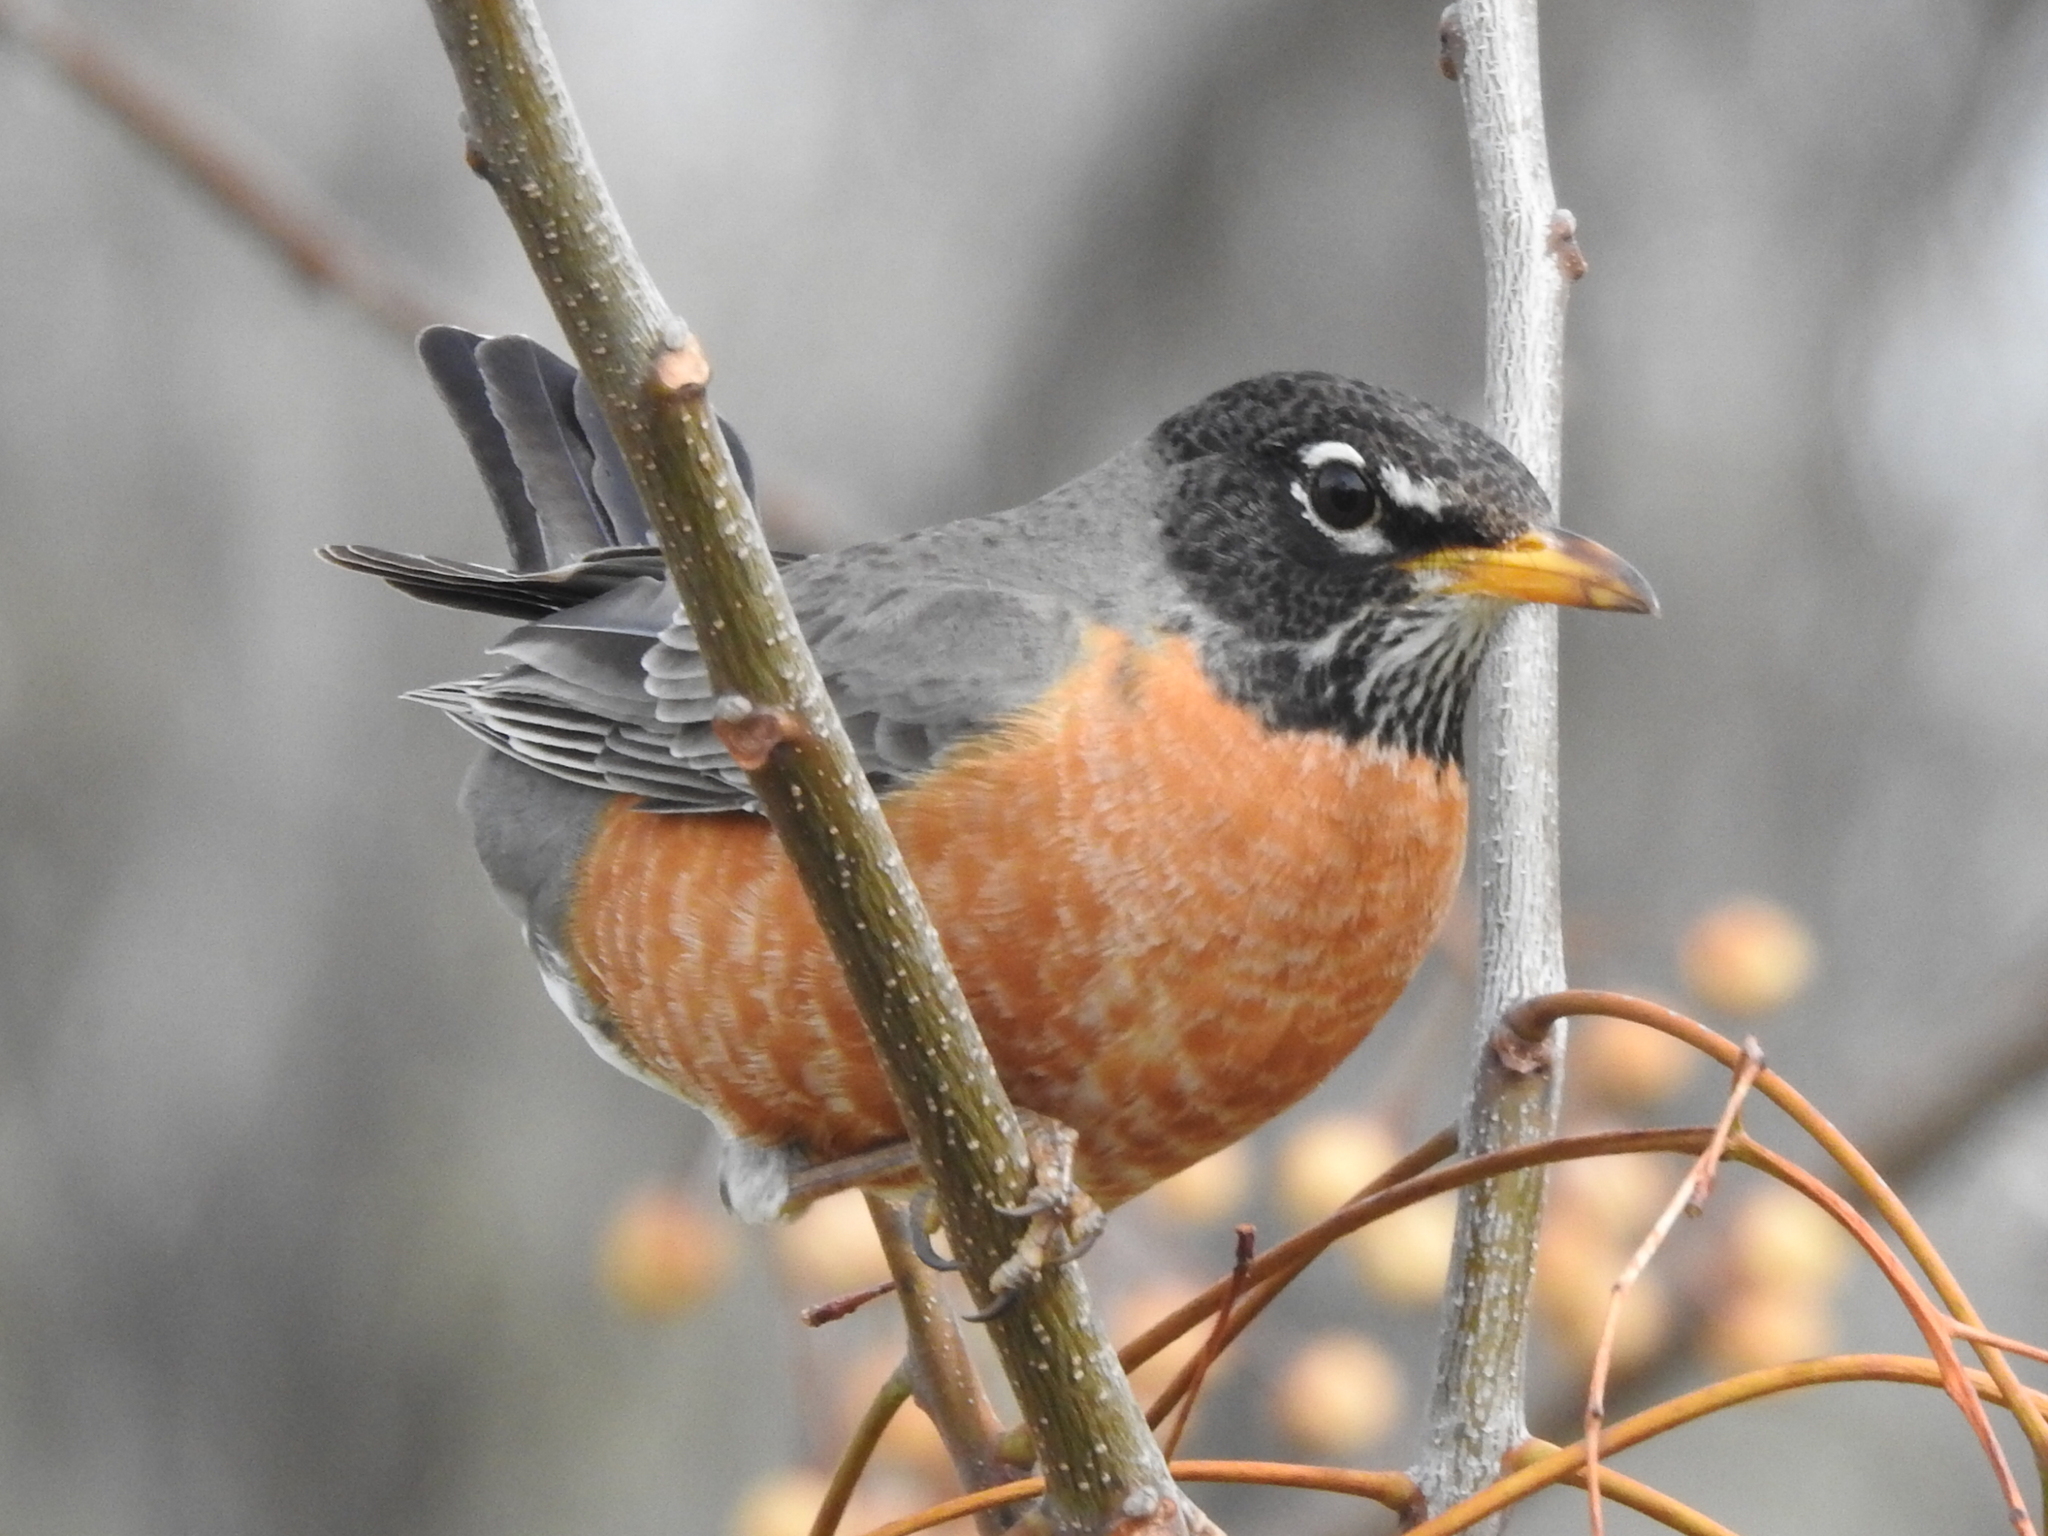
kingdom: Animalia
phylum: Chordata
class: Aves
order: Passeriformes
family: Turdidae
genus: Turdus
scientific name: Turdus migratorius
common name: American robin
